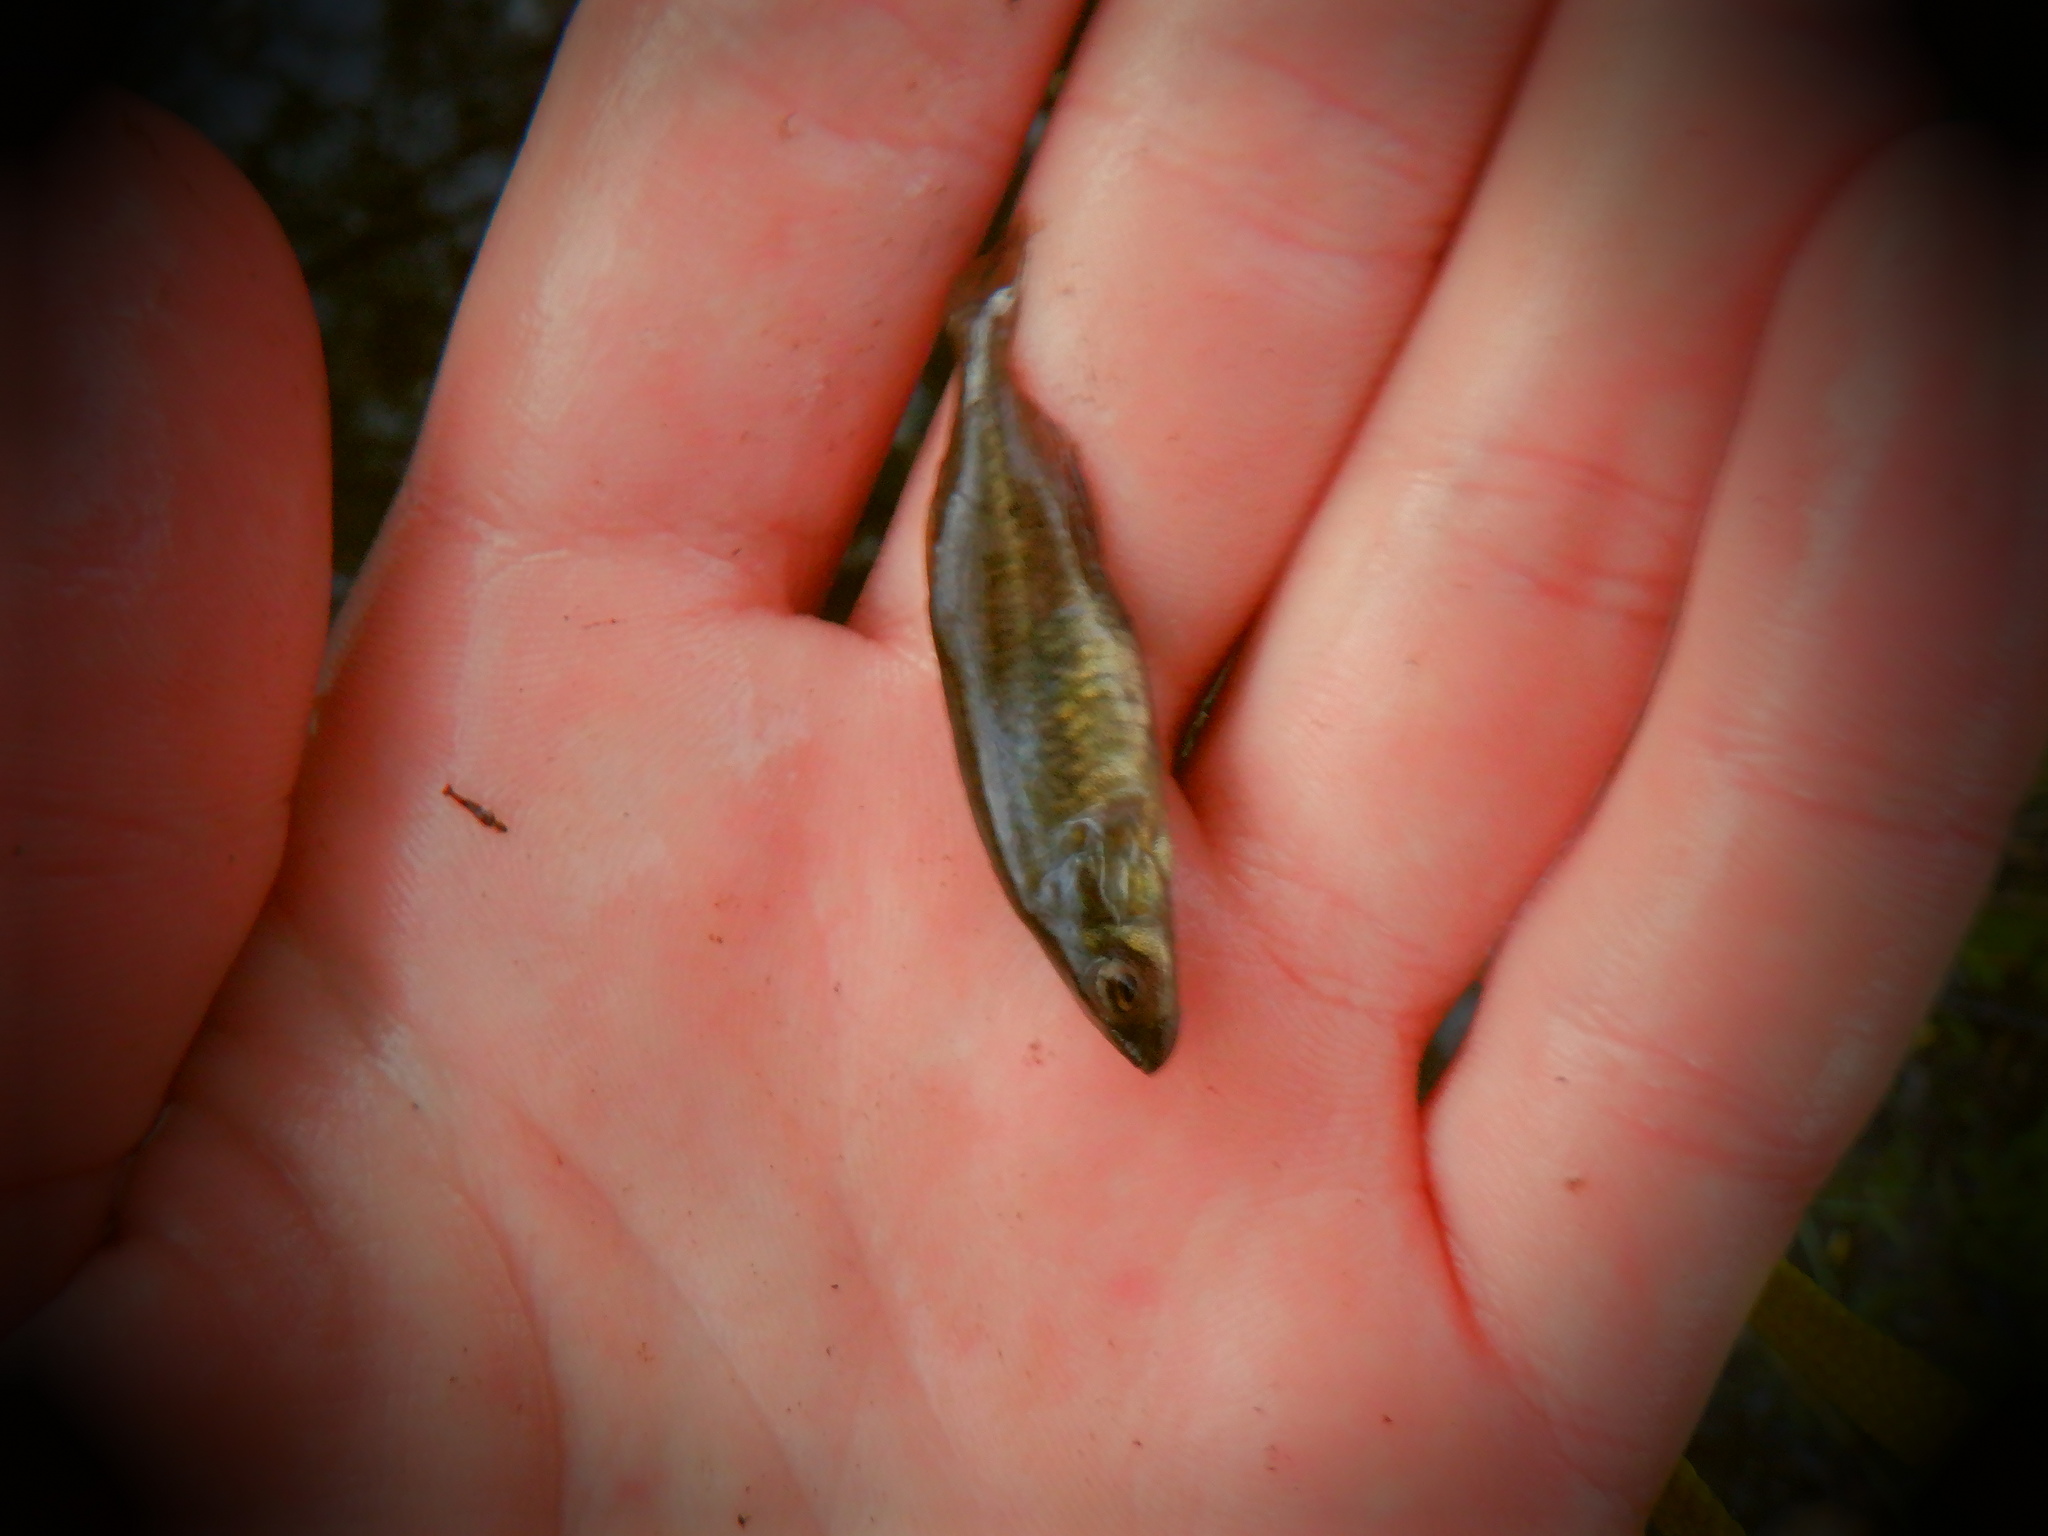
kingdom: Animalia
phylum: Chordata
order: Gasterosteiformes
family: Gasterosteidae
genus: Culaea
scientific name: Culaea inconstans
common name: Brook stickleback
